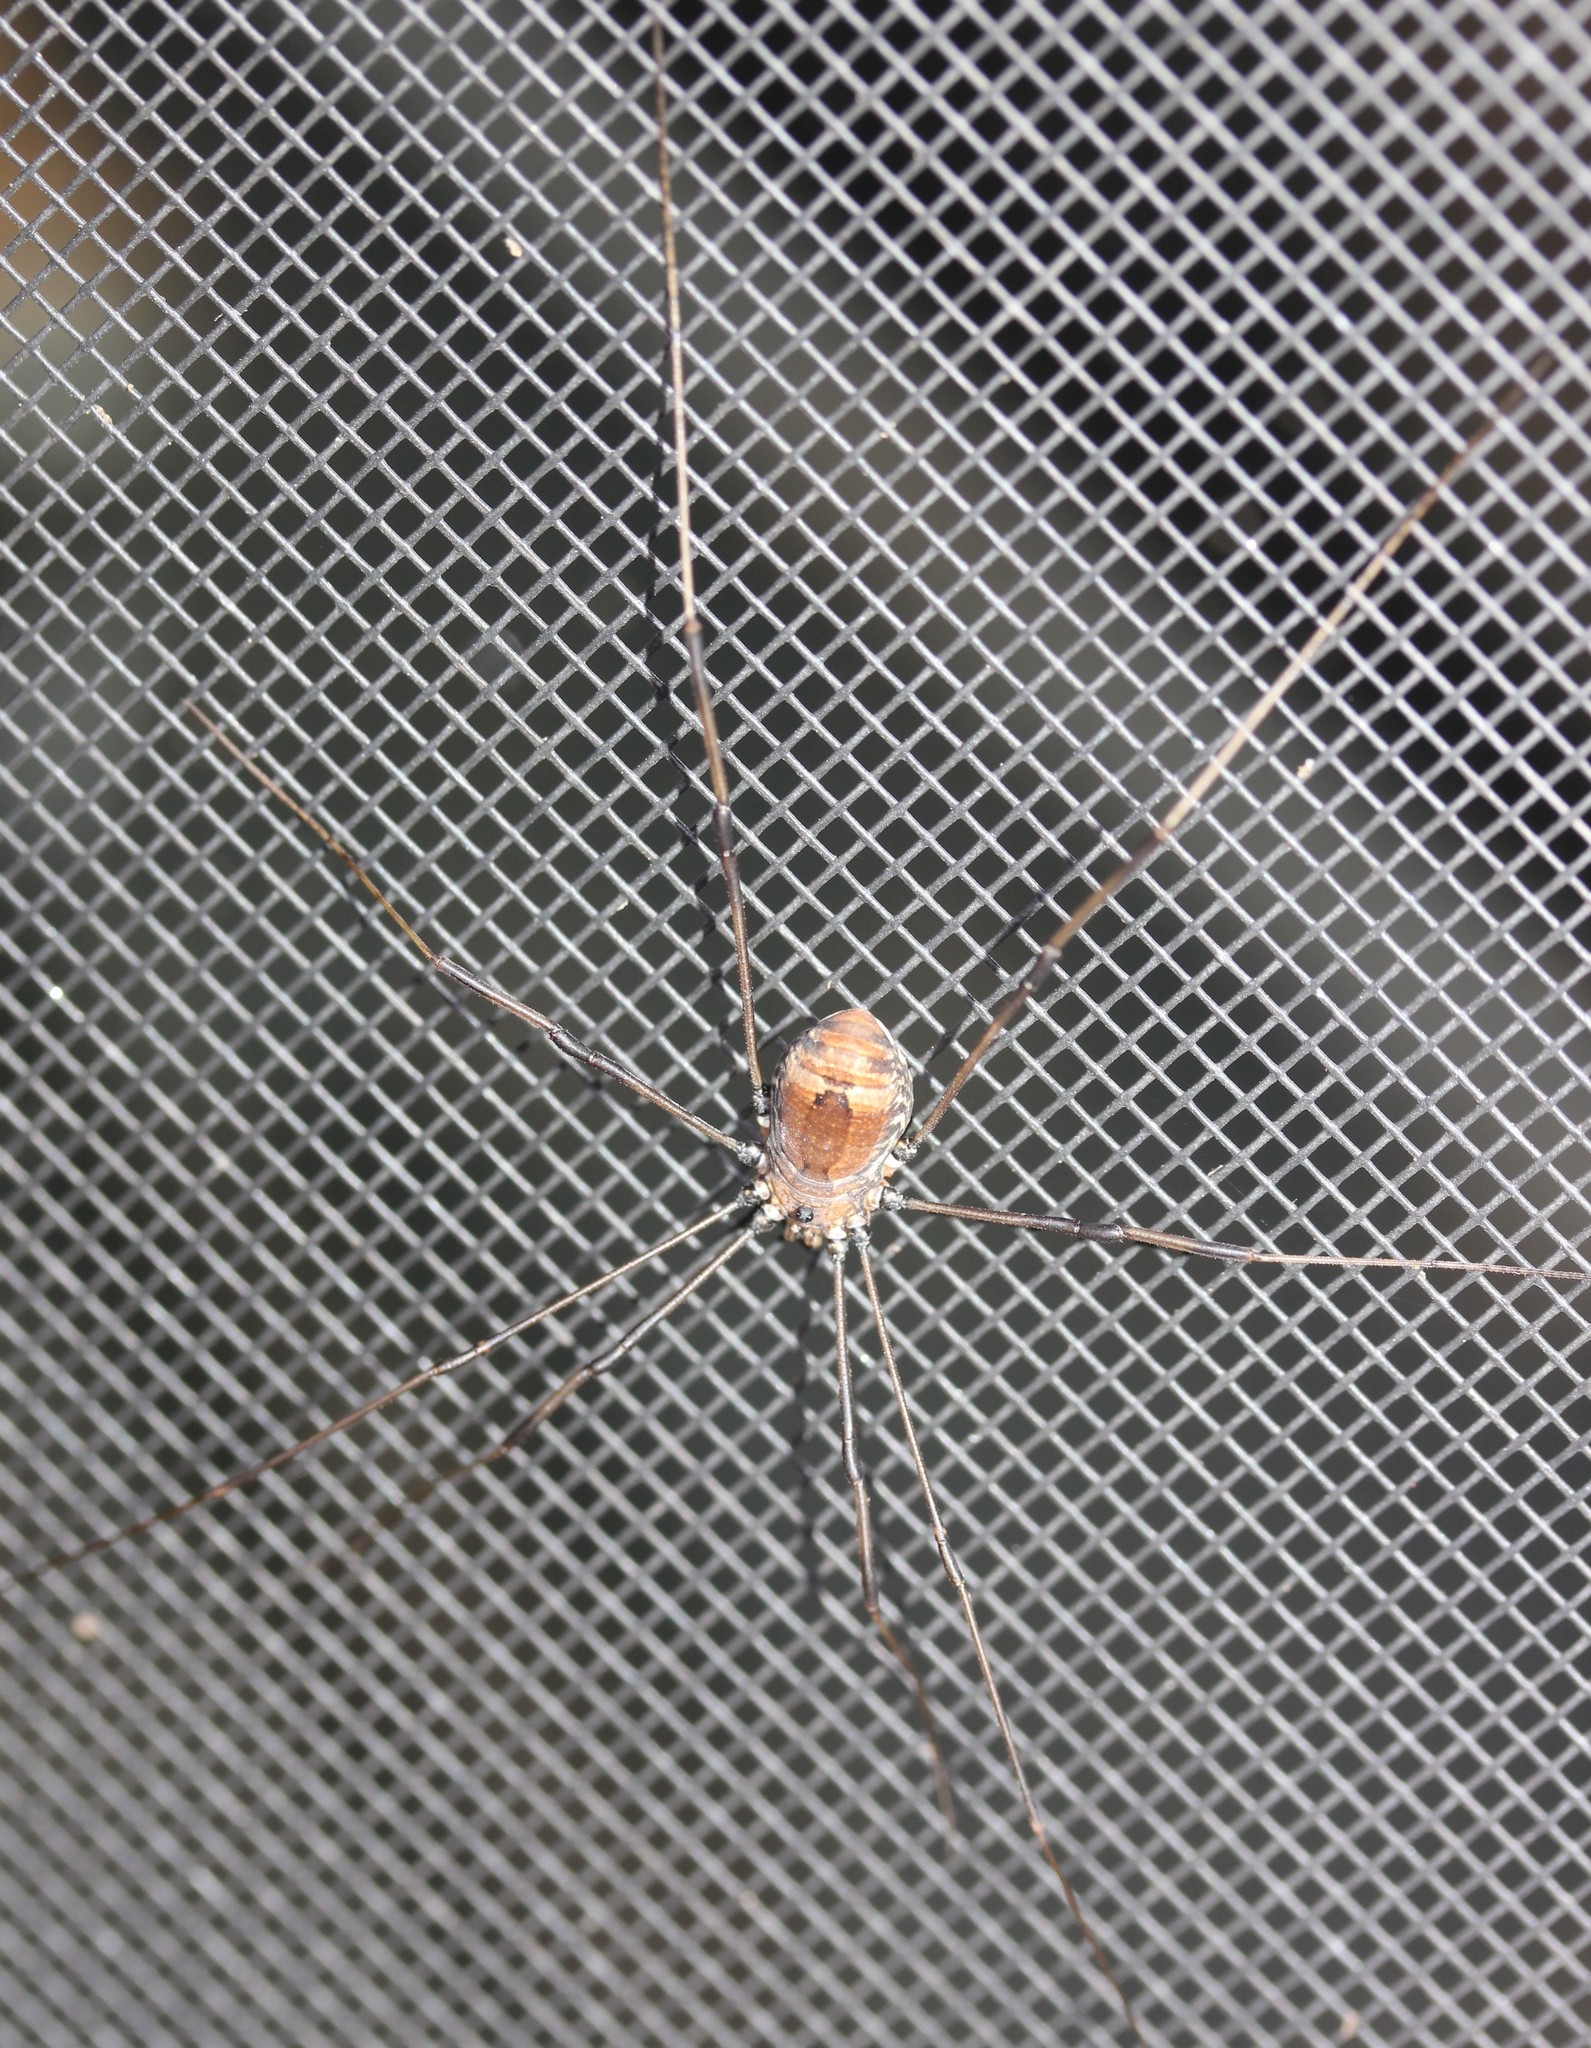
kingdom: Animalia
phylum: Arthropoda
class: Arachnida
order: Opiliones
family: Sclerosomatidae
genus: Leiobunum
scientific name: Leiobunum verrucosum
